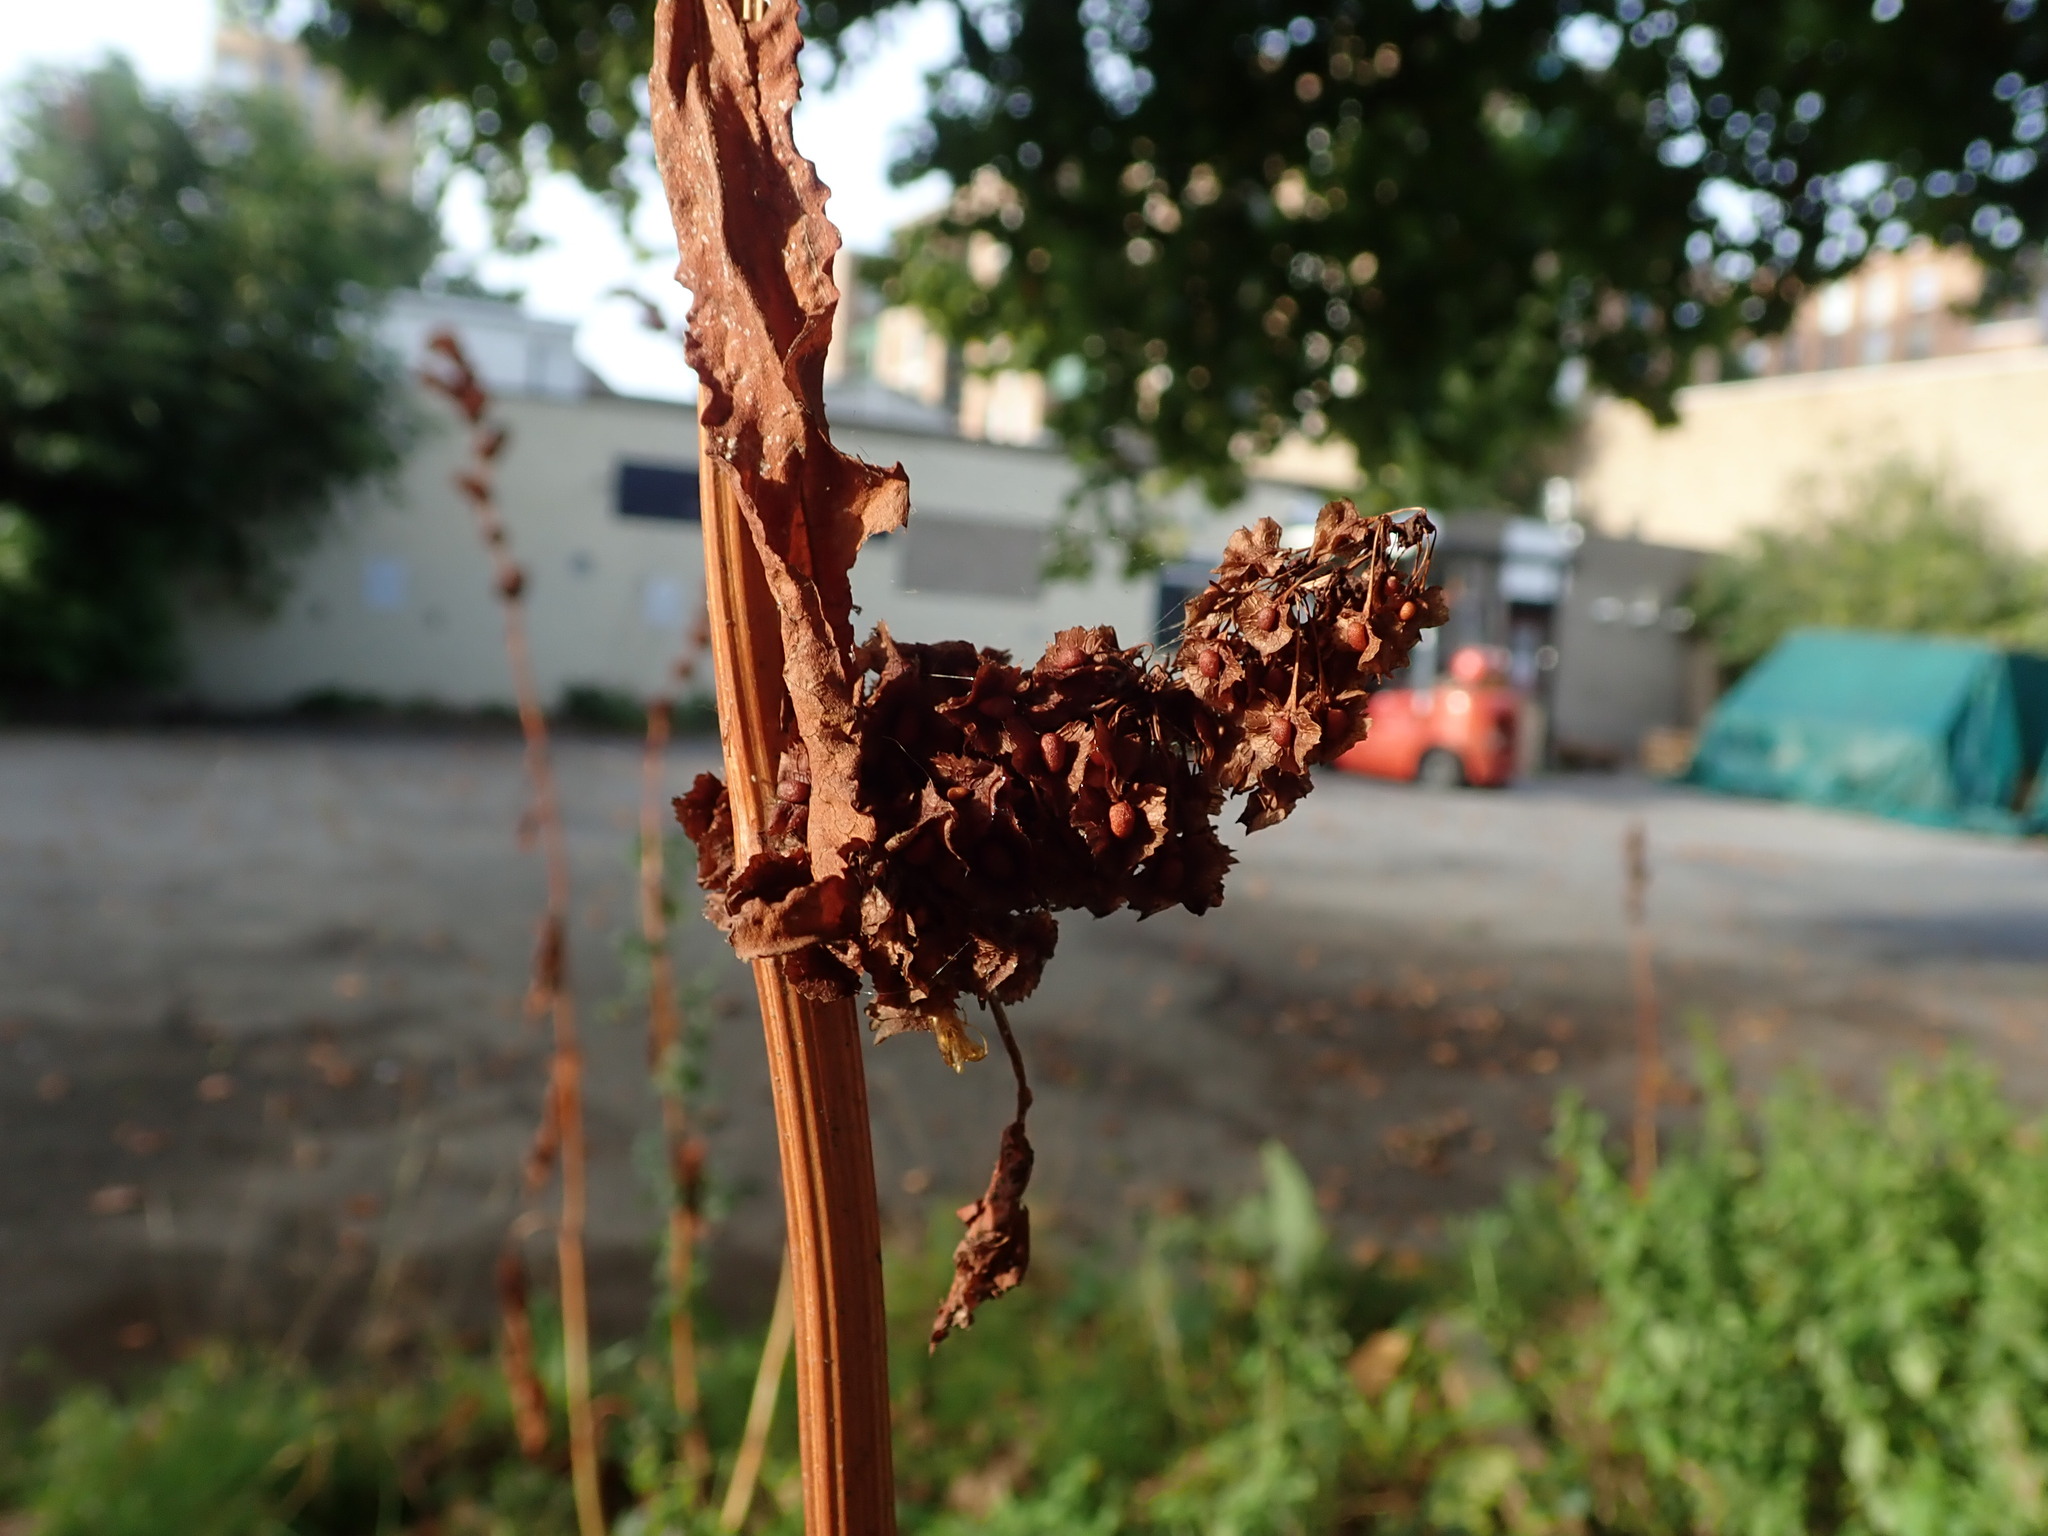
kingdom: Plantae
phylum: Tracheophyta
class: Magnoliopsida
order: Caryophyllales
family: Polygonaceae
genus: Rumex
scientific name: Rumex cristatus
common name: Greek dock
